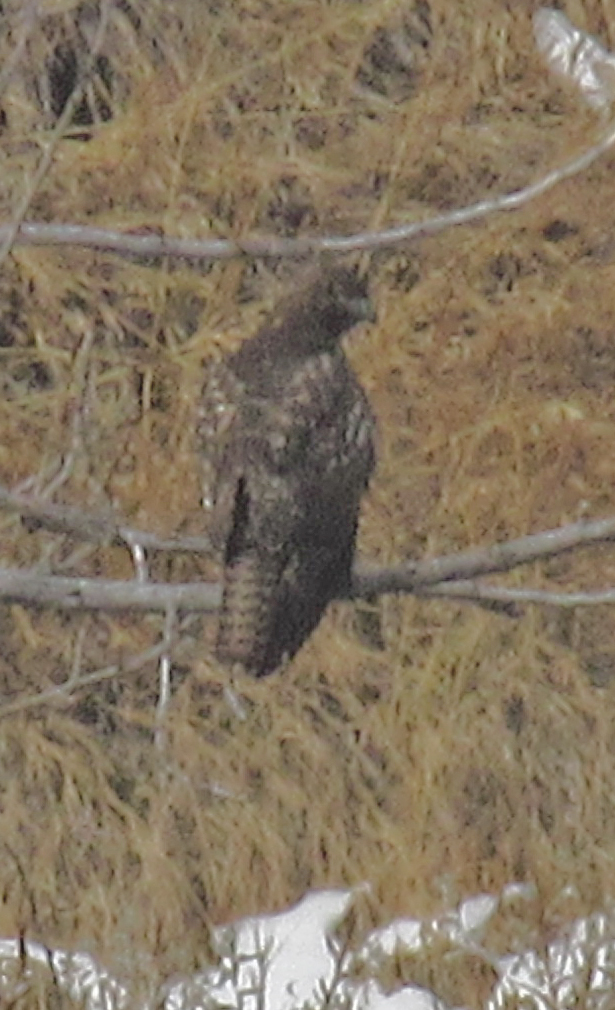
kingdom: Animalia
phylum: Chordata
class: Aves
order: Accipitriformes
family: Accipitridae
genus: Buteo
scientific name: Buteo jamaicensis
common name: Red-tailed hawk
